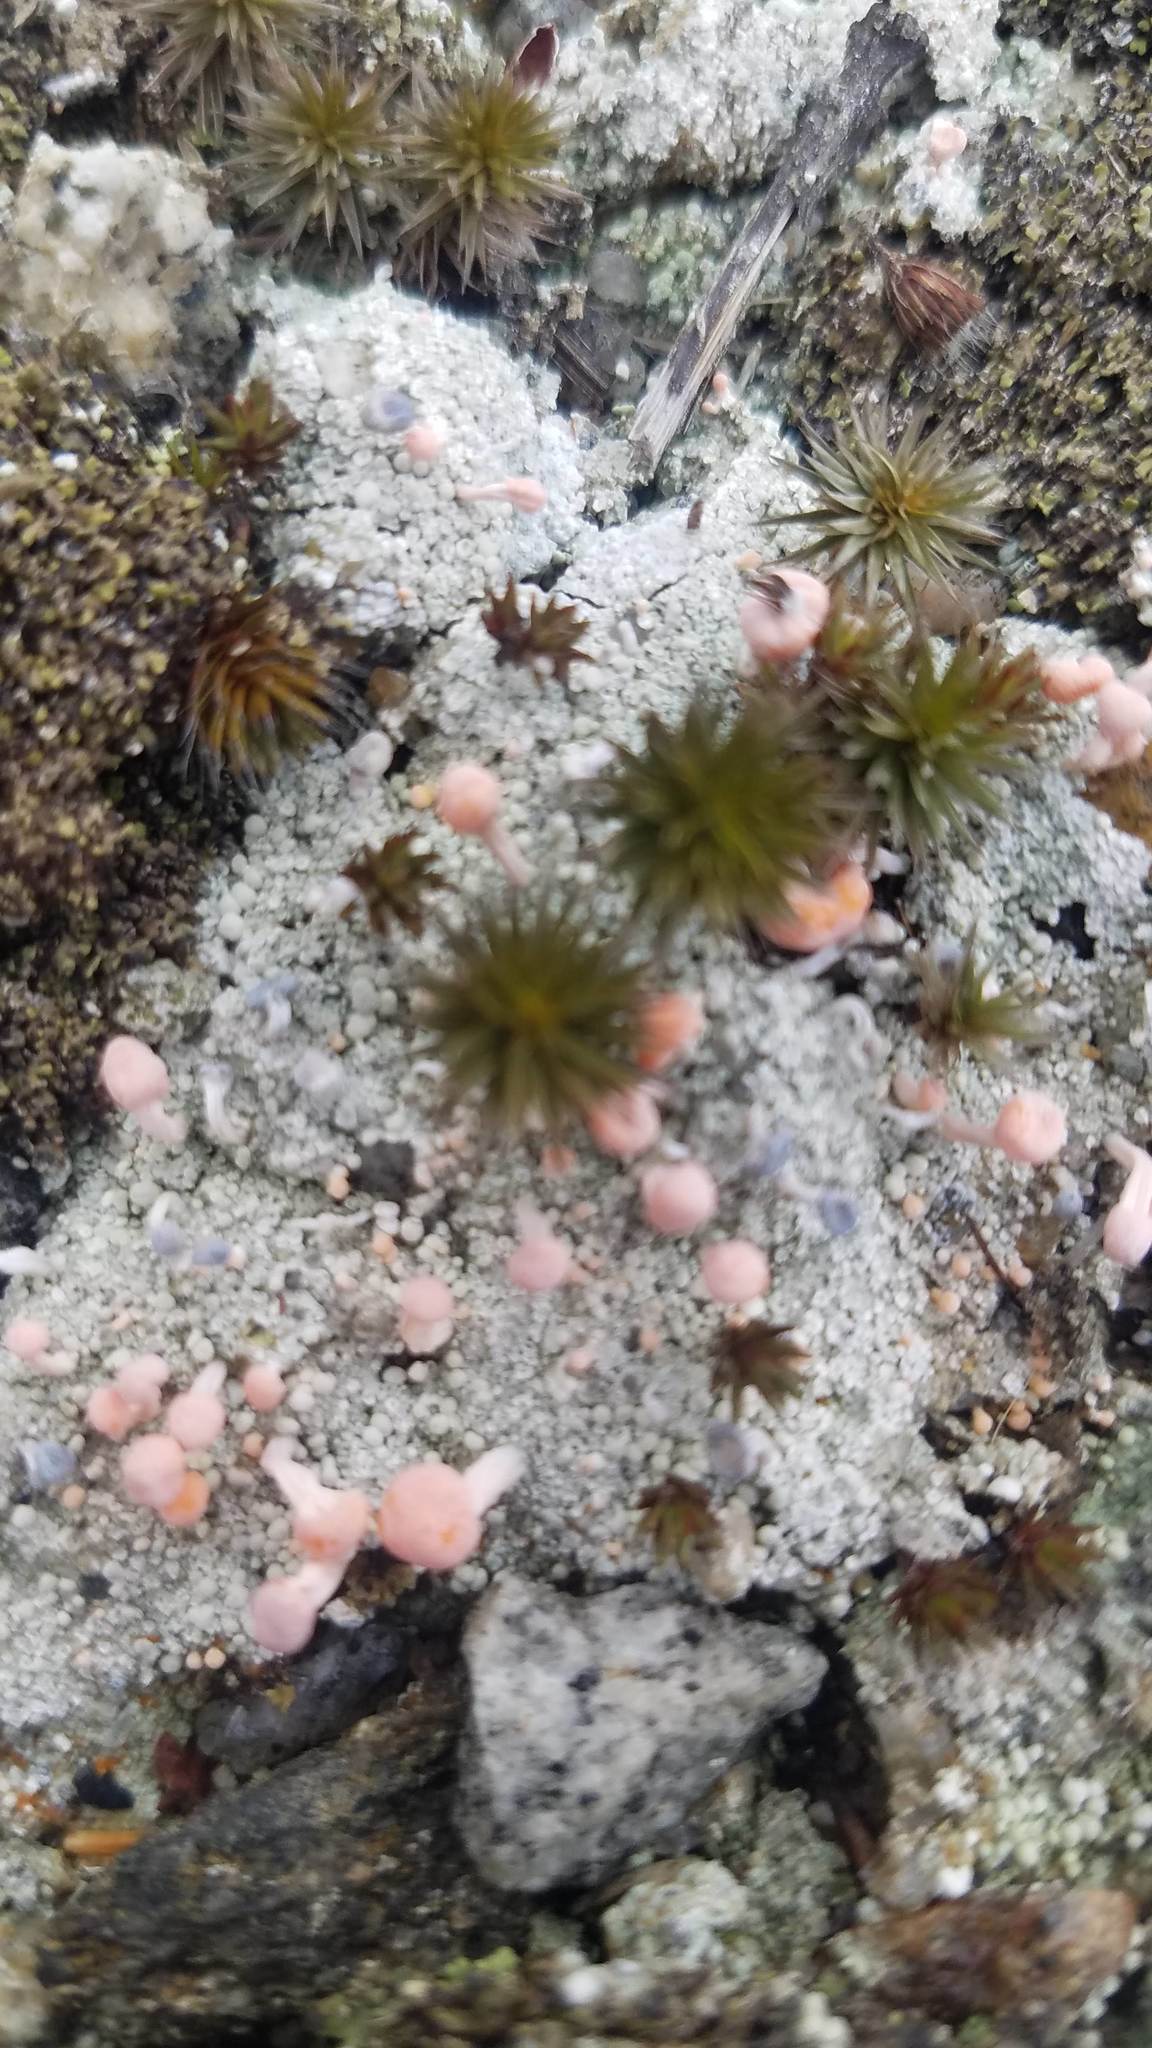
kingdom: Fungi
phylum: Ascomycota
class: Lecanoromycetes
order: Pertusariales
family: Icmadophilaceae
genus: Dibaeis
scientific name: Dibaeis baeomyces
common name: Pink earth lichen
